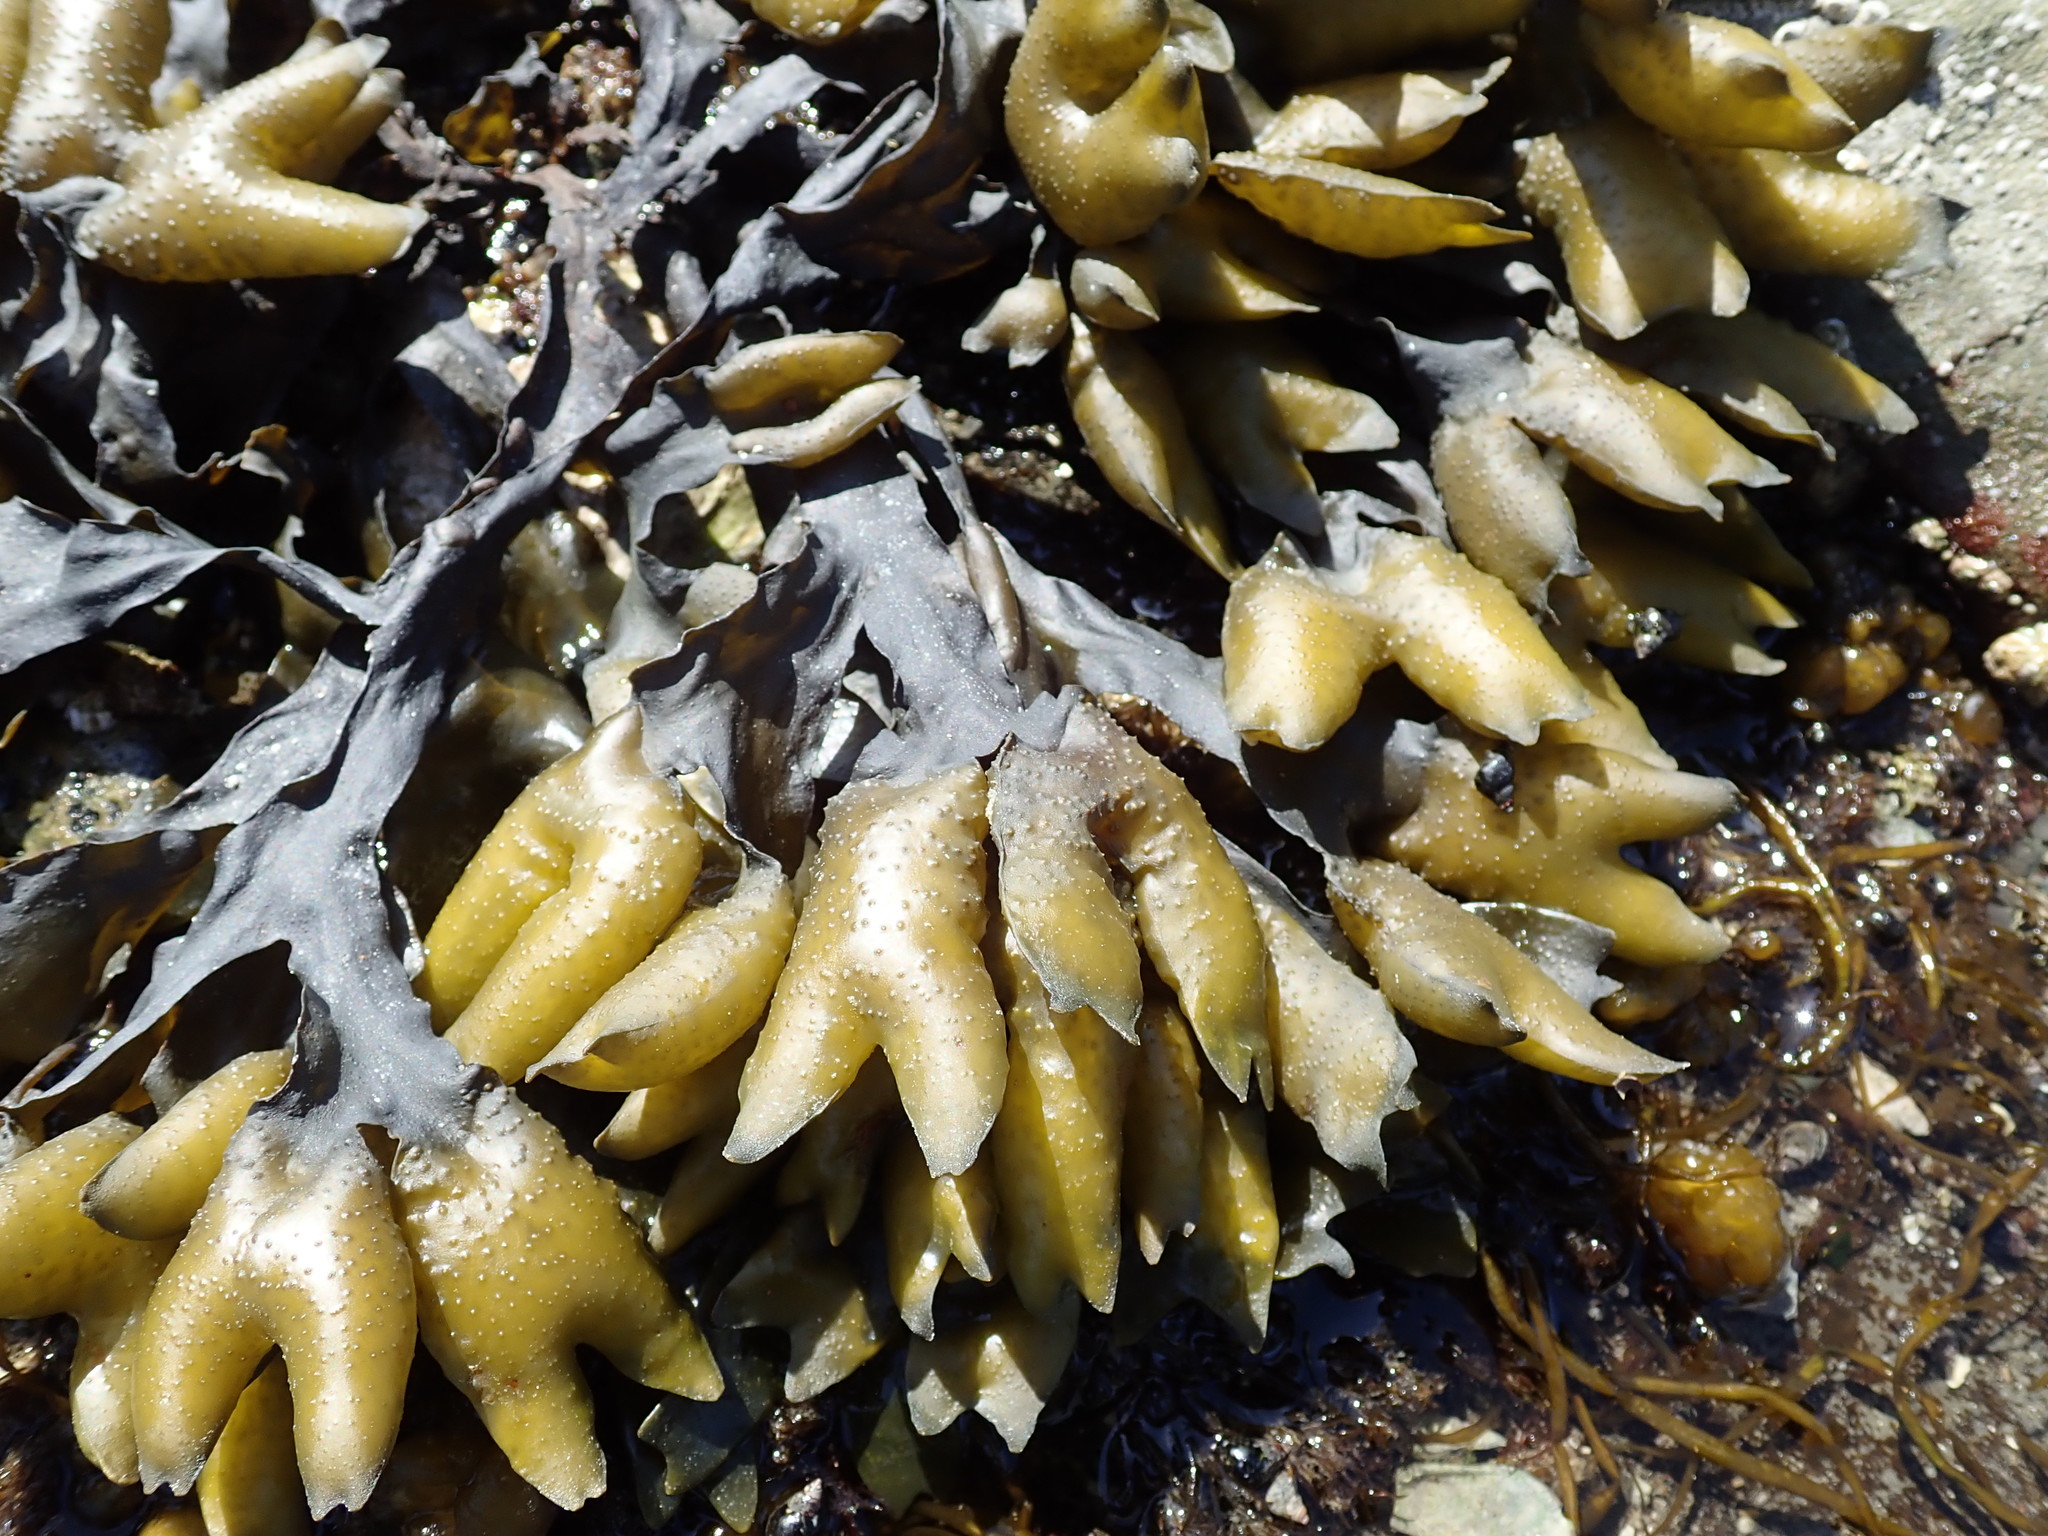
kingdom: Chromista
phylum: Ochrophyta
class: Phaeophyceae
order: Fucales
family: Fucaceae
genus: Fucus
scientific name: Fucus distichus
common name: Rockweed
